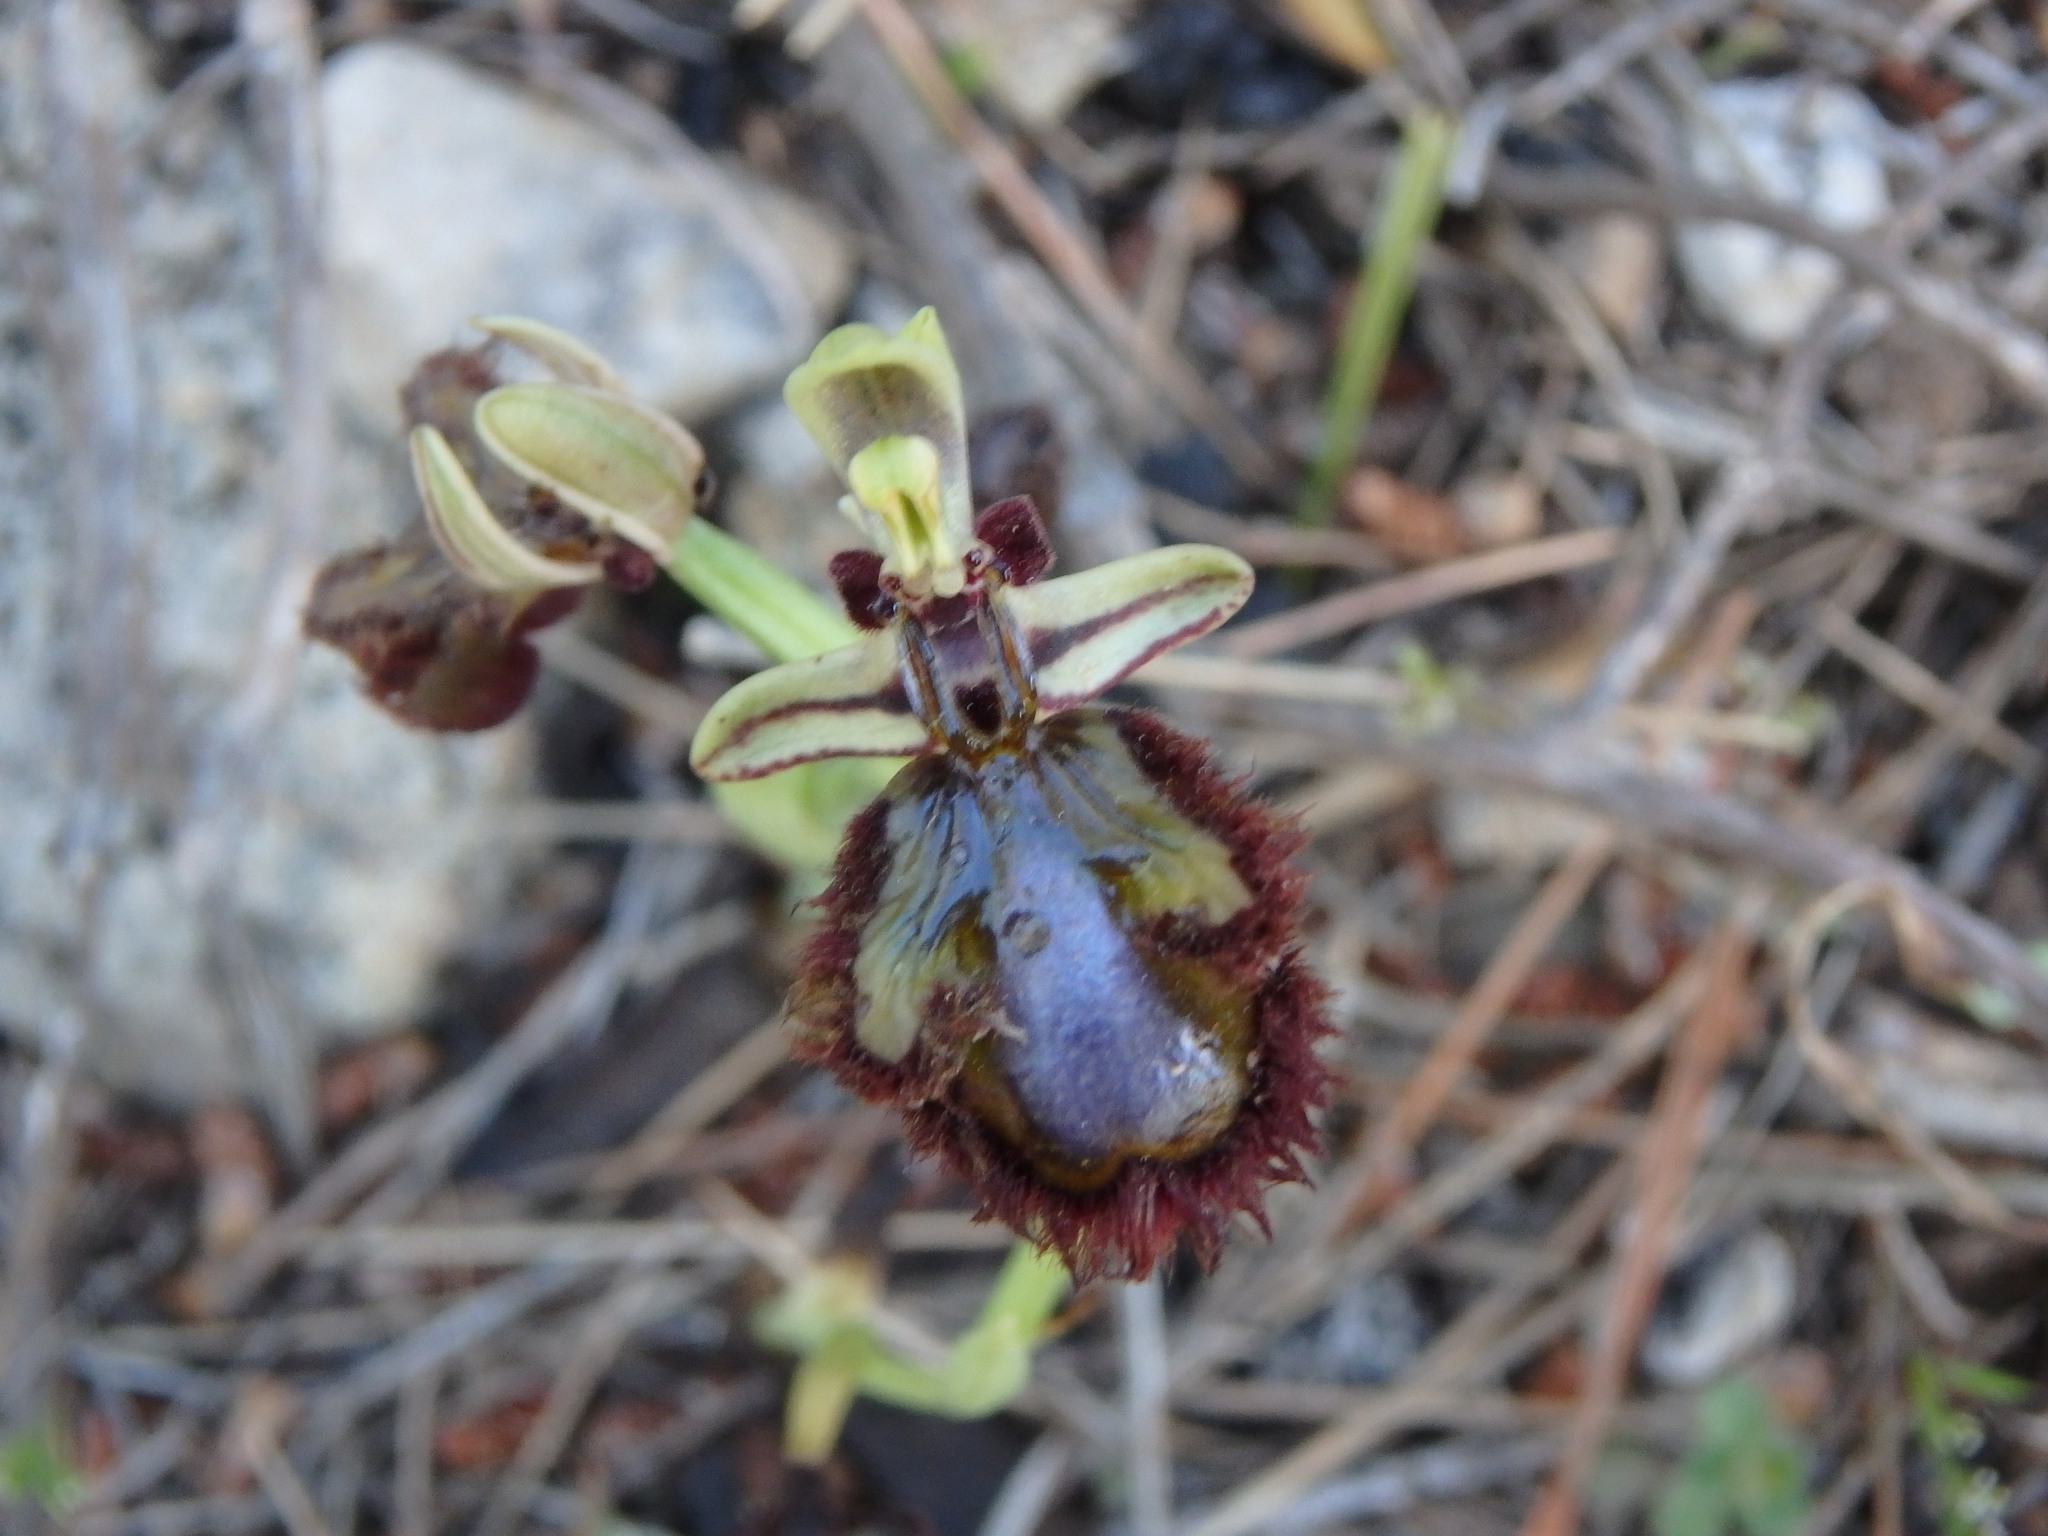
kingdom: Plantae
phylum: Tracheophyta
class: Liliopsida
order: Asparagales
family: Orchidaceae
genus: Ophrys
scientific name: Ophrys speculum
